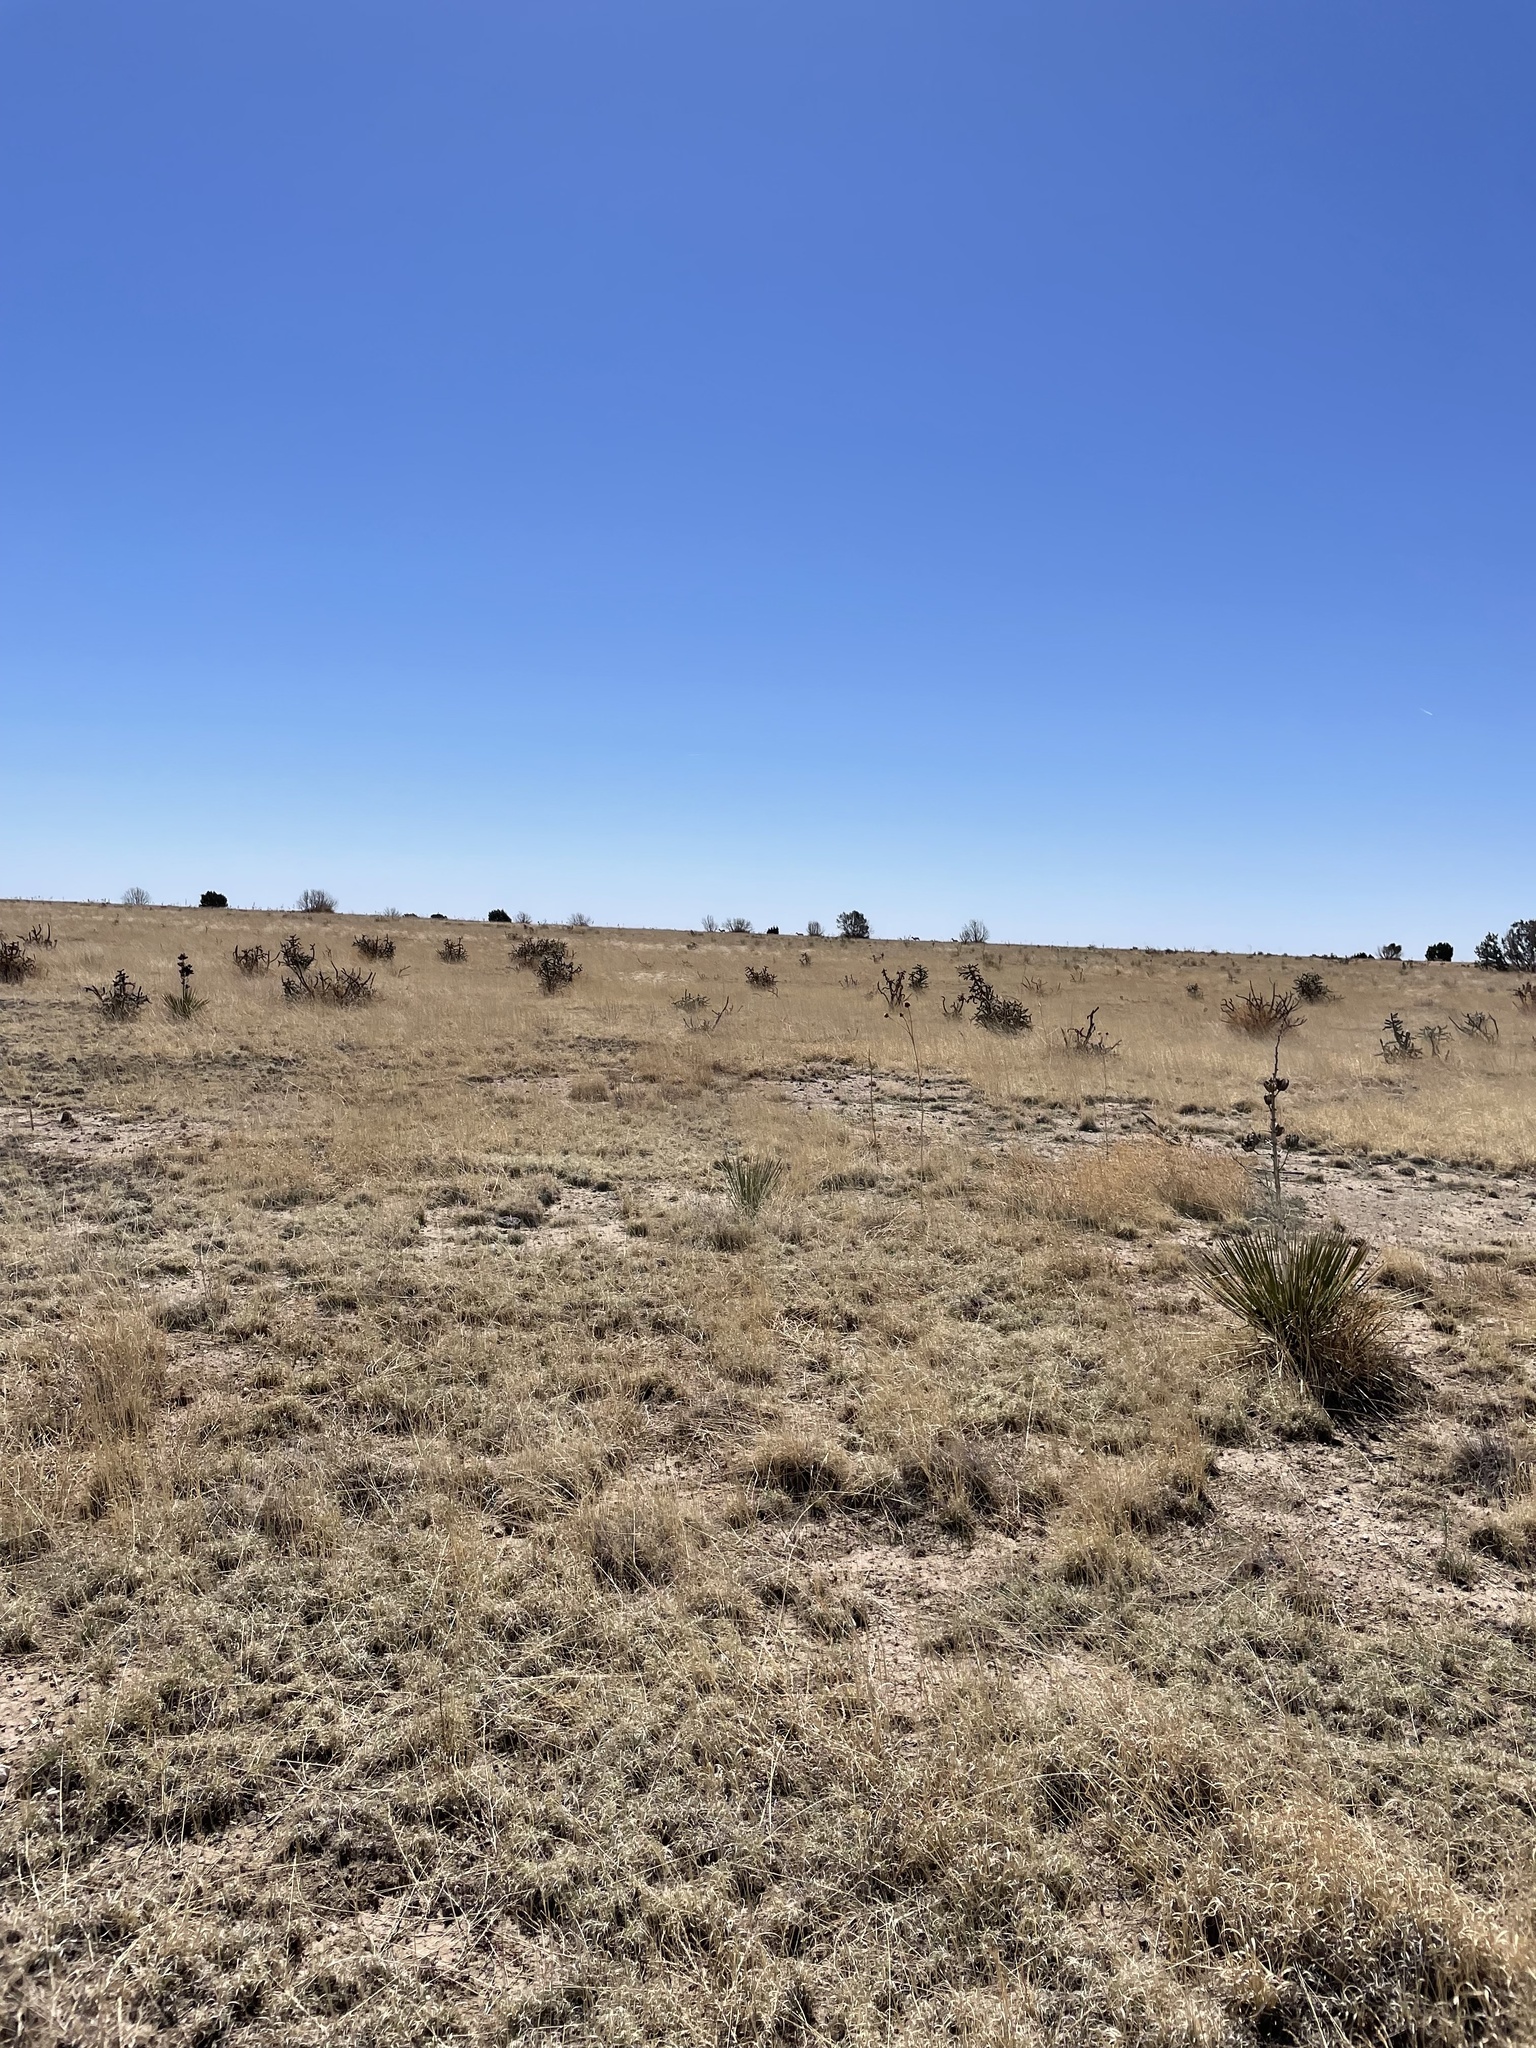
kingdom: Animalia
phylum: Chordata
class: Mammalia
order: Artiodactyla
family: Antilocapridae
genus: Antilocapra
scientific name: Antilocapra americana
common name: Pronghorn
